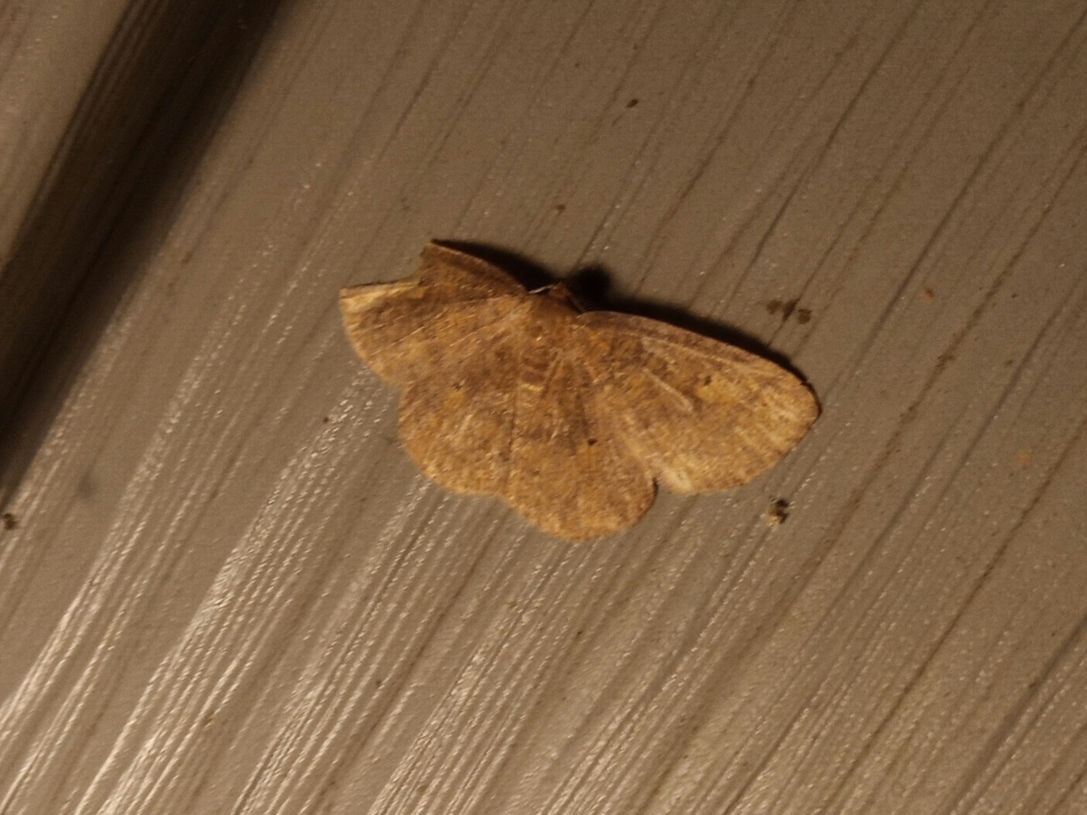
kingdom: Animalia
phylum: Arthropoda
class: Insecta
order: Lepidoptera
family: Geometridae
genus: Ilexia
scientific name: Ilexia intractata
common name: Black-dotted ruddy moth
